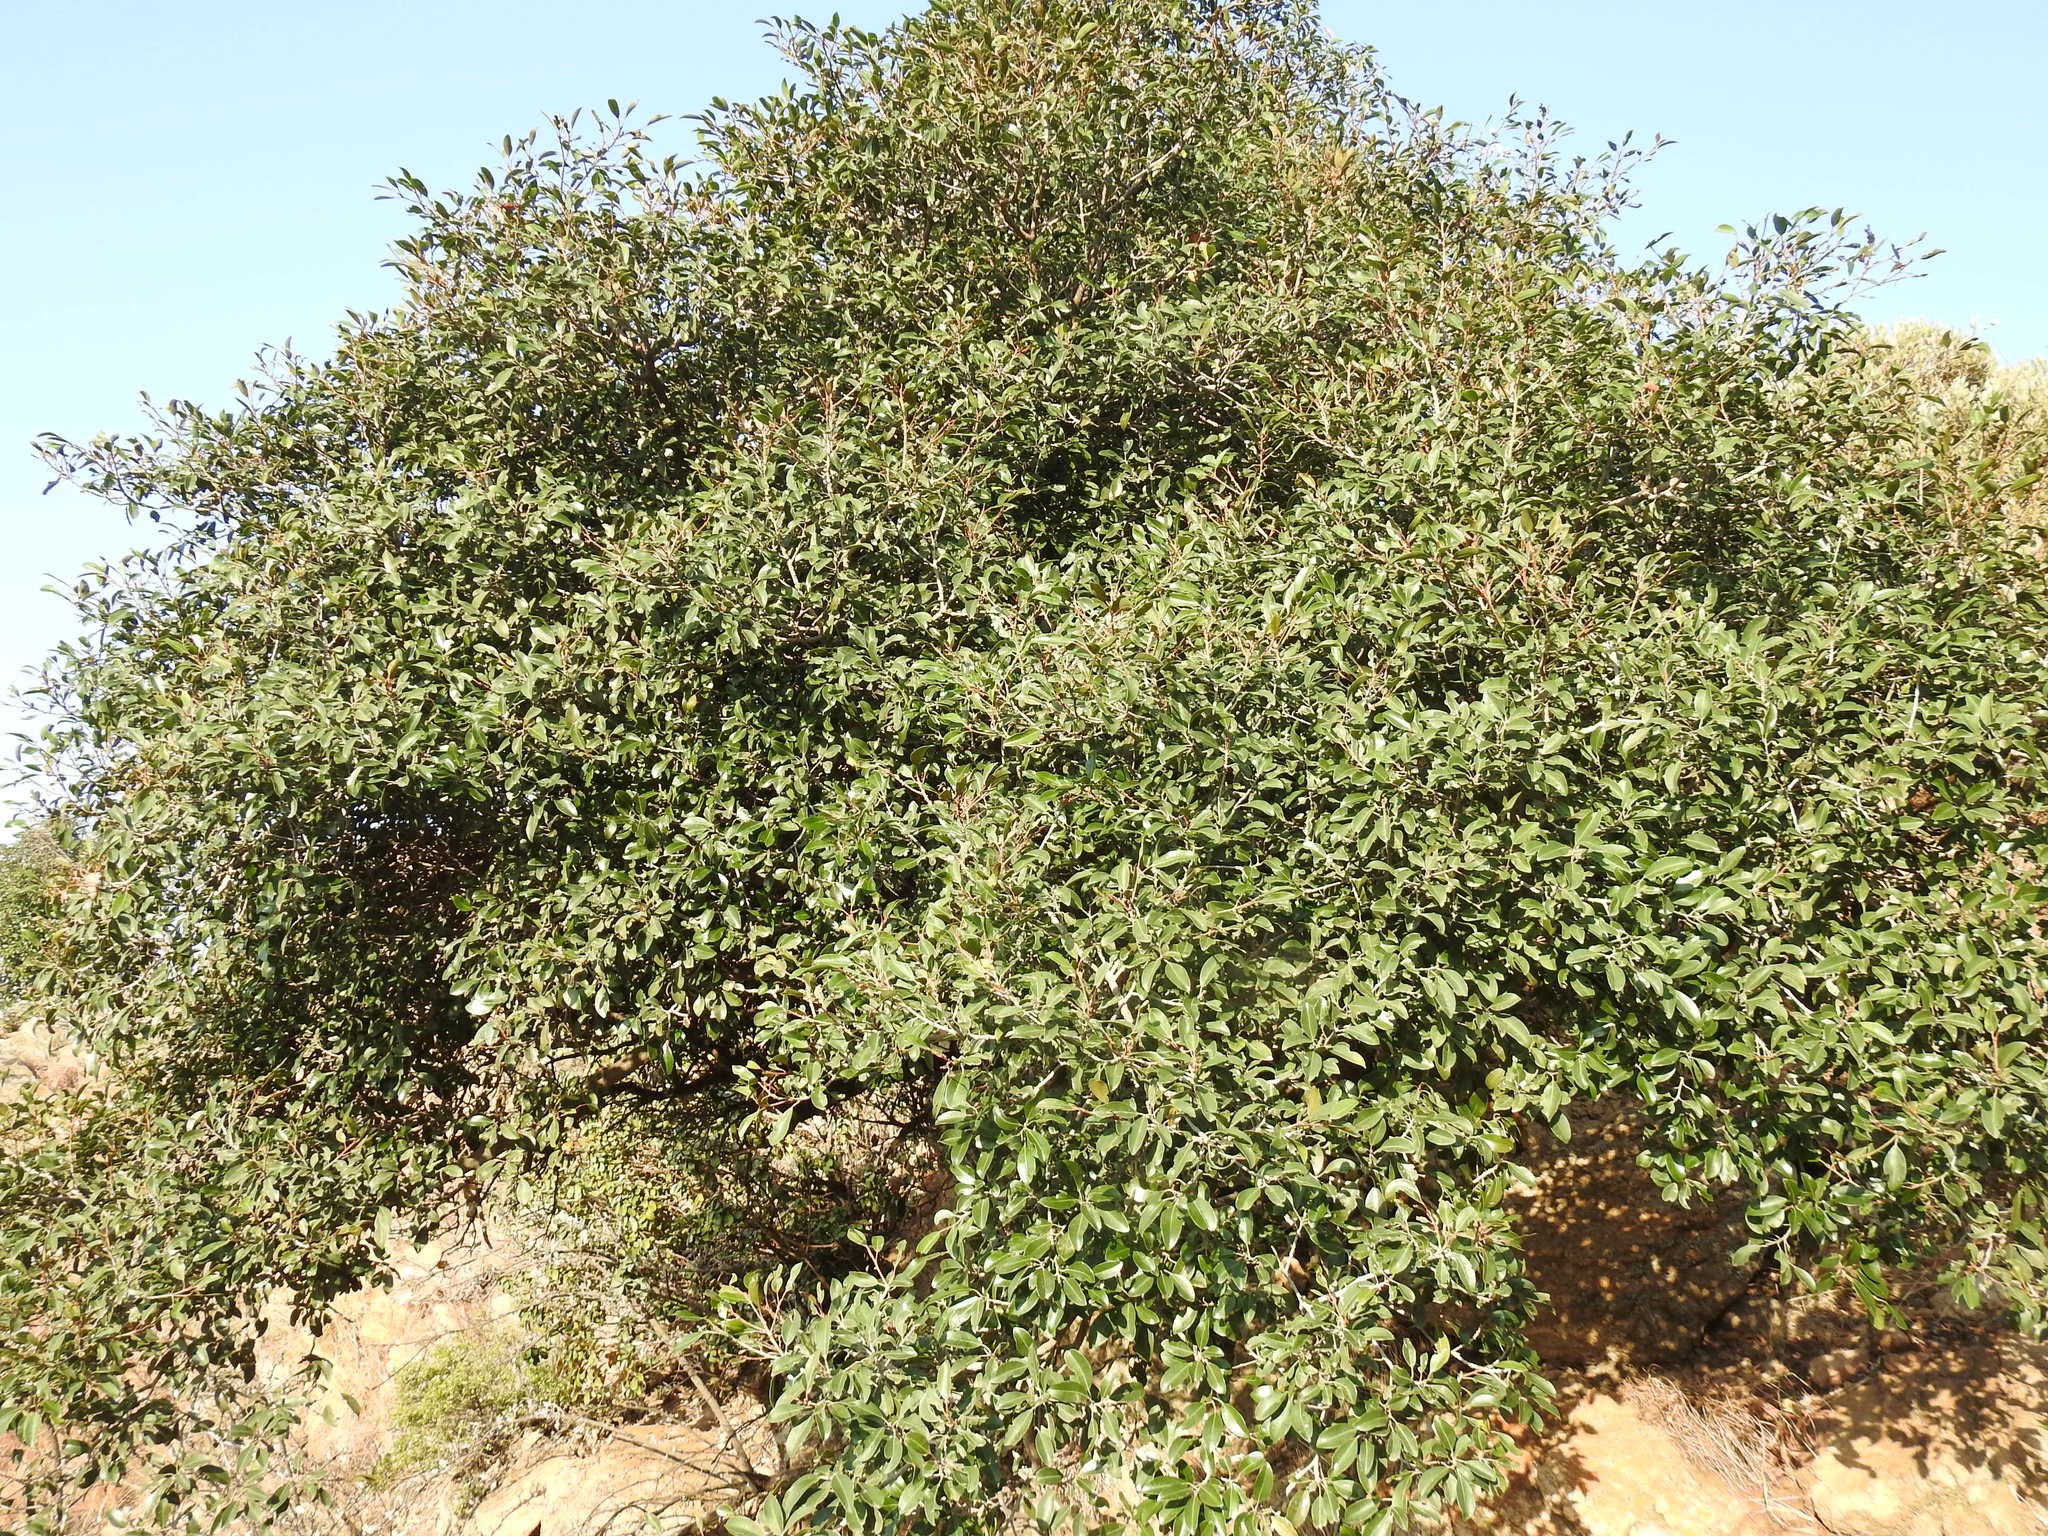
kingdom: Plantae
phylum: Tracheophyta
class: Magnoliopsida
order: Ericales
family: Sapotaceae
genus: Mimusops
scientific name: Mimusops zeyheri
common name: Transvaal red milkwood
